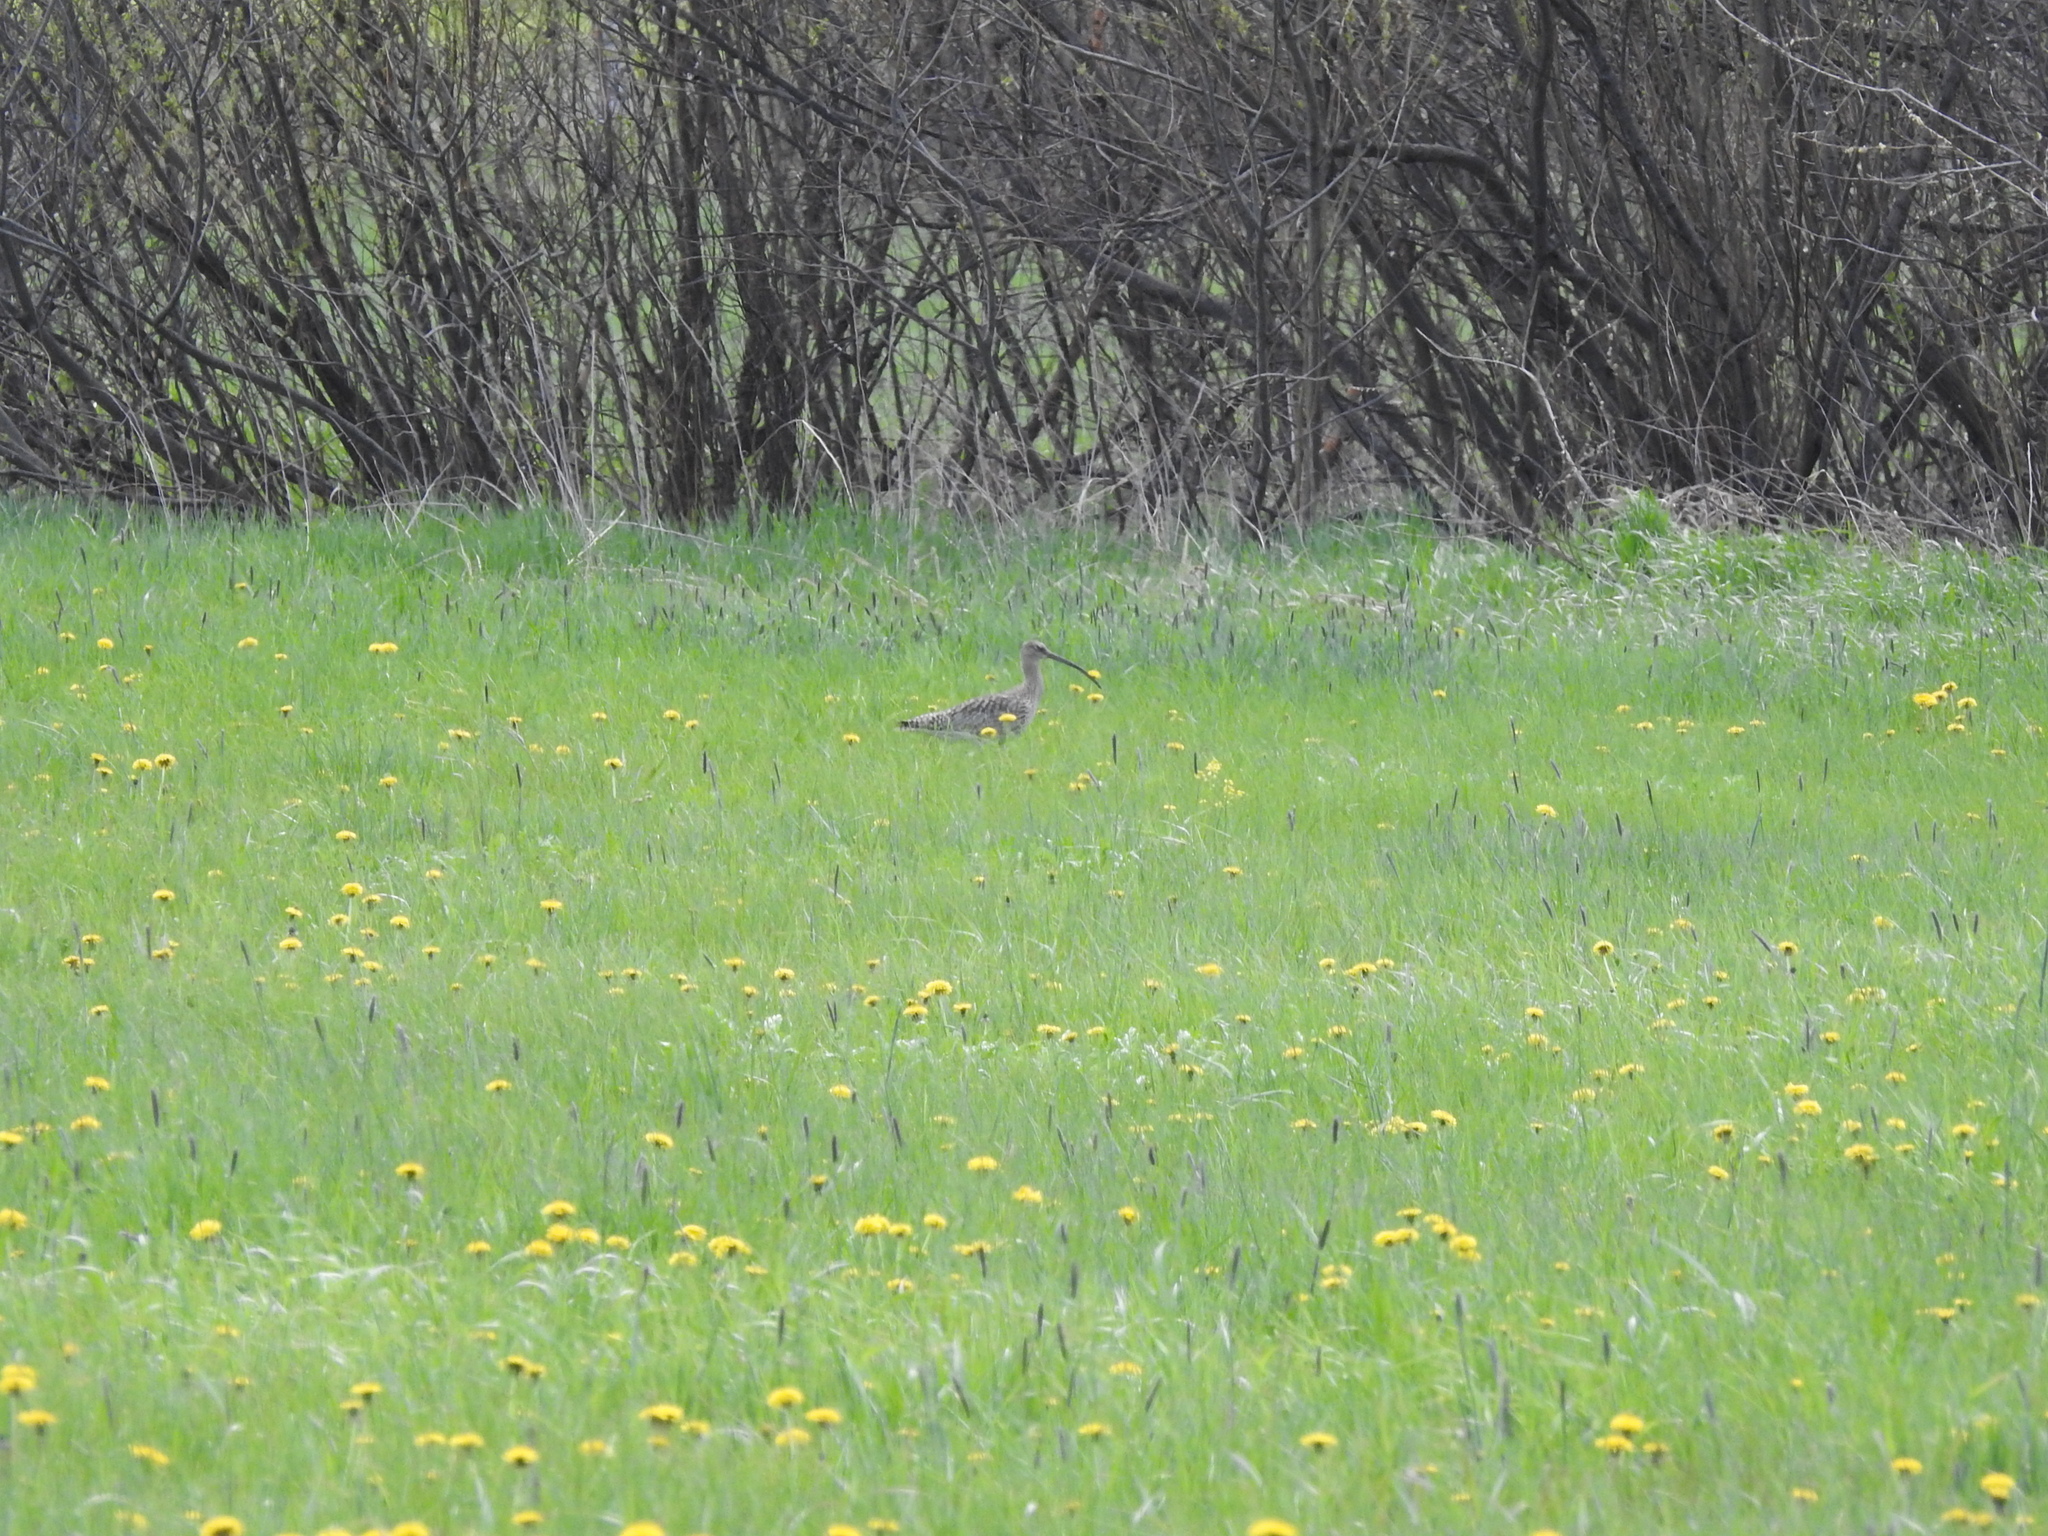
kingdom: Animalia
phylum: Chordata
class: Aves
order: Charadriiformes
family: Scolopacidae
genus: Numenius
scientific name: Numenius arquata
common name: Eurasian curlew
